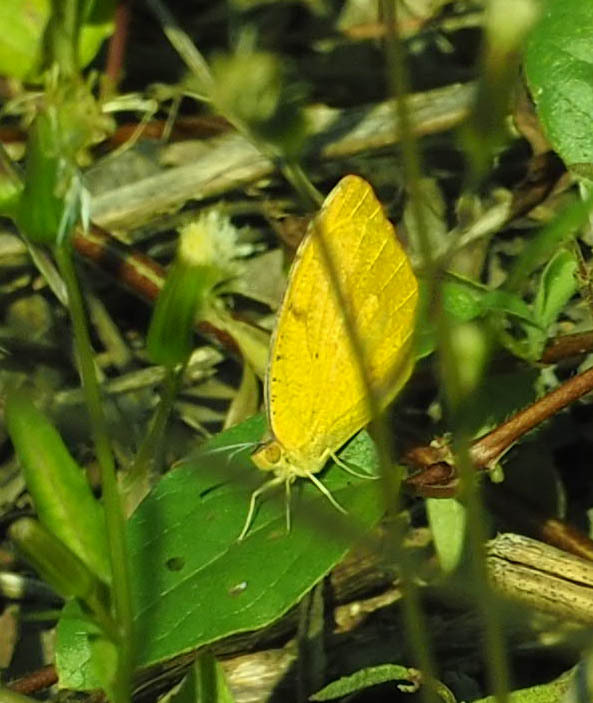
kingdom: Animalia
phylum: Arthropoda
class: Insecta
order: Lepidoptera
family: Pieridae
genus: Abaeis
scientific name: Abaeis nicippe
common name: Sleepy orange
